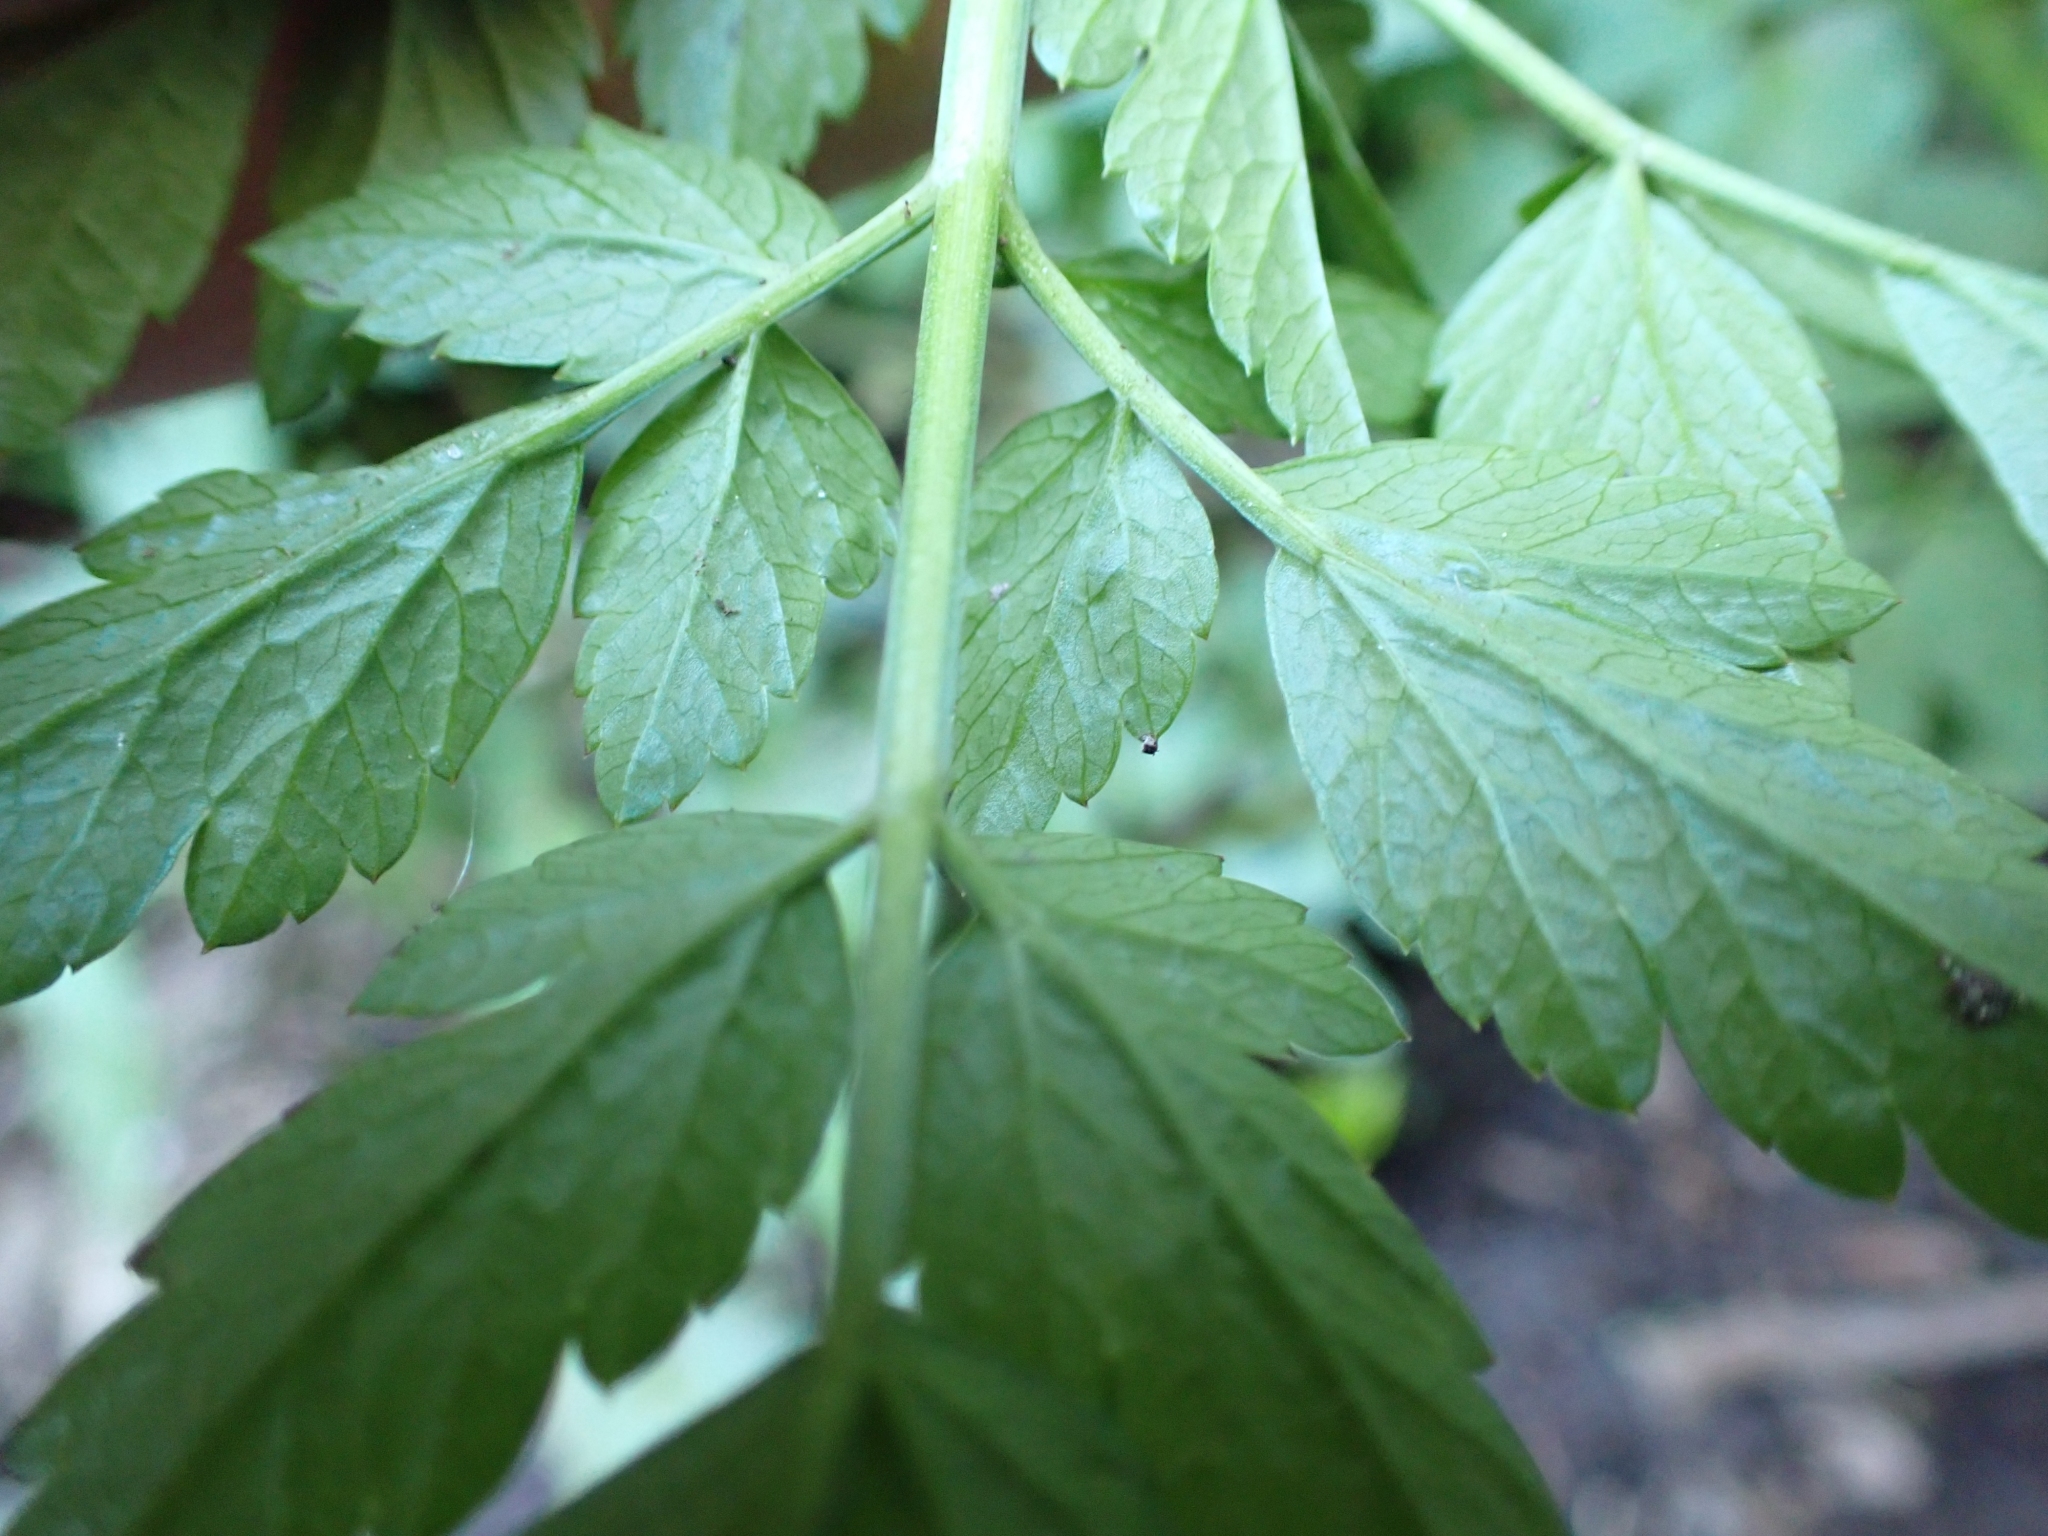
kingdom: Plantae
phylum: Tracheophyta
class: Magnoliopsida
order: Apiales
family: Apiaceae
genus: Oenanthe
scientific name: Oenanthe sarmentosa
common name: American water-parsley
